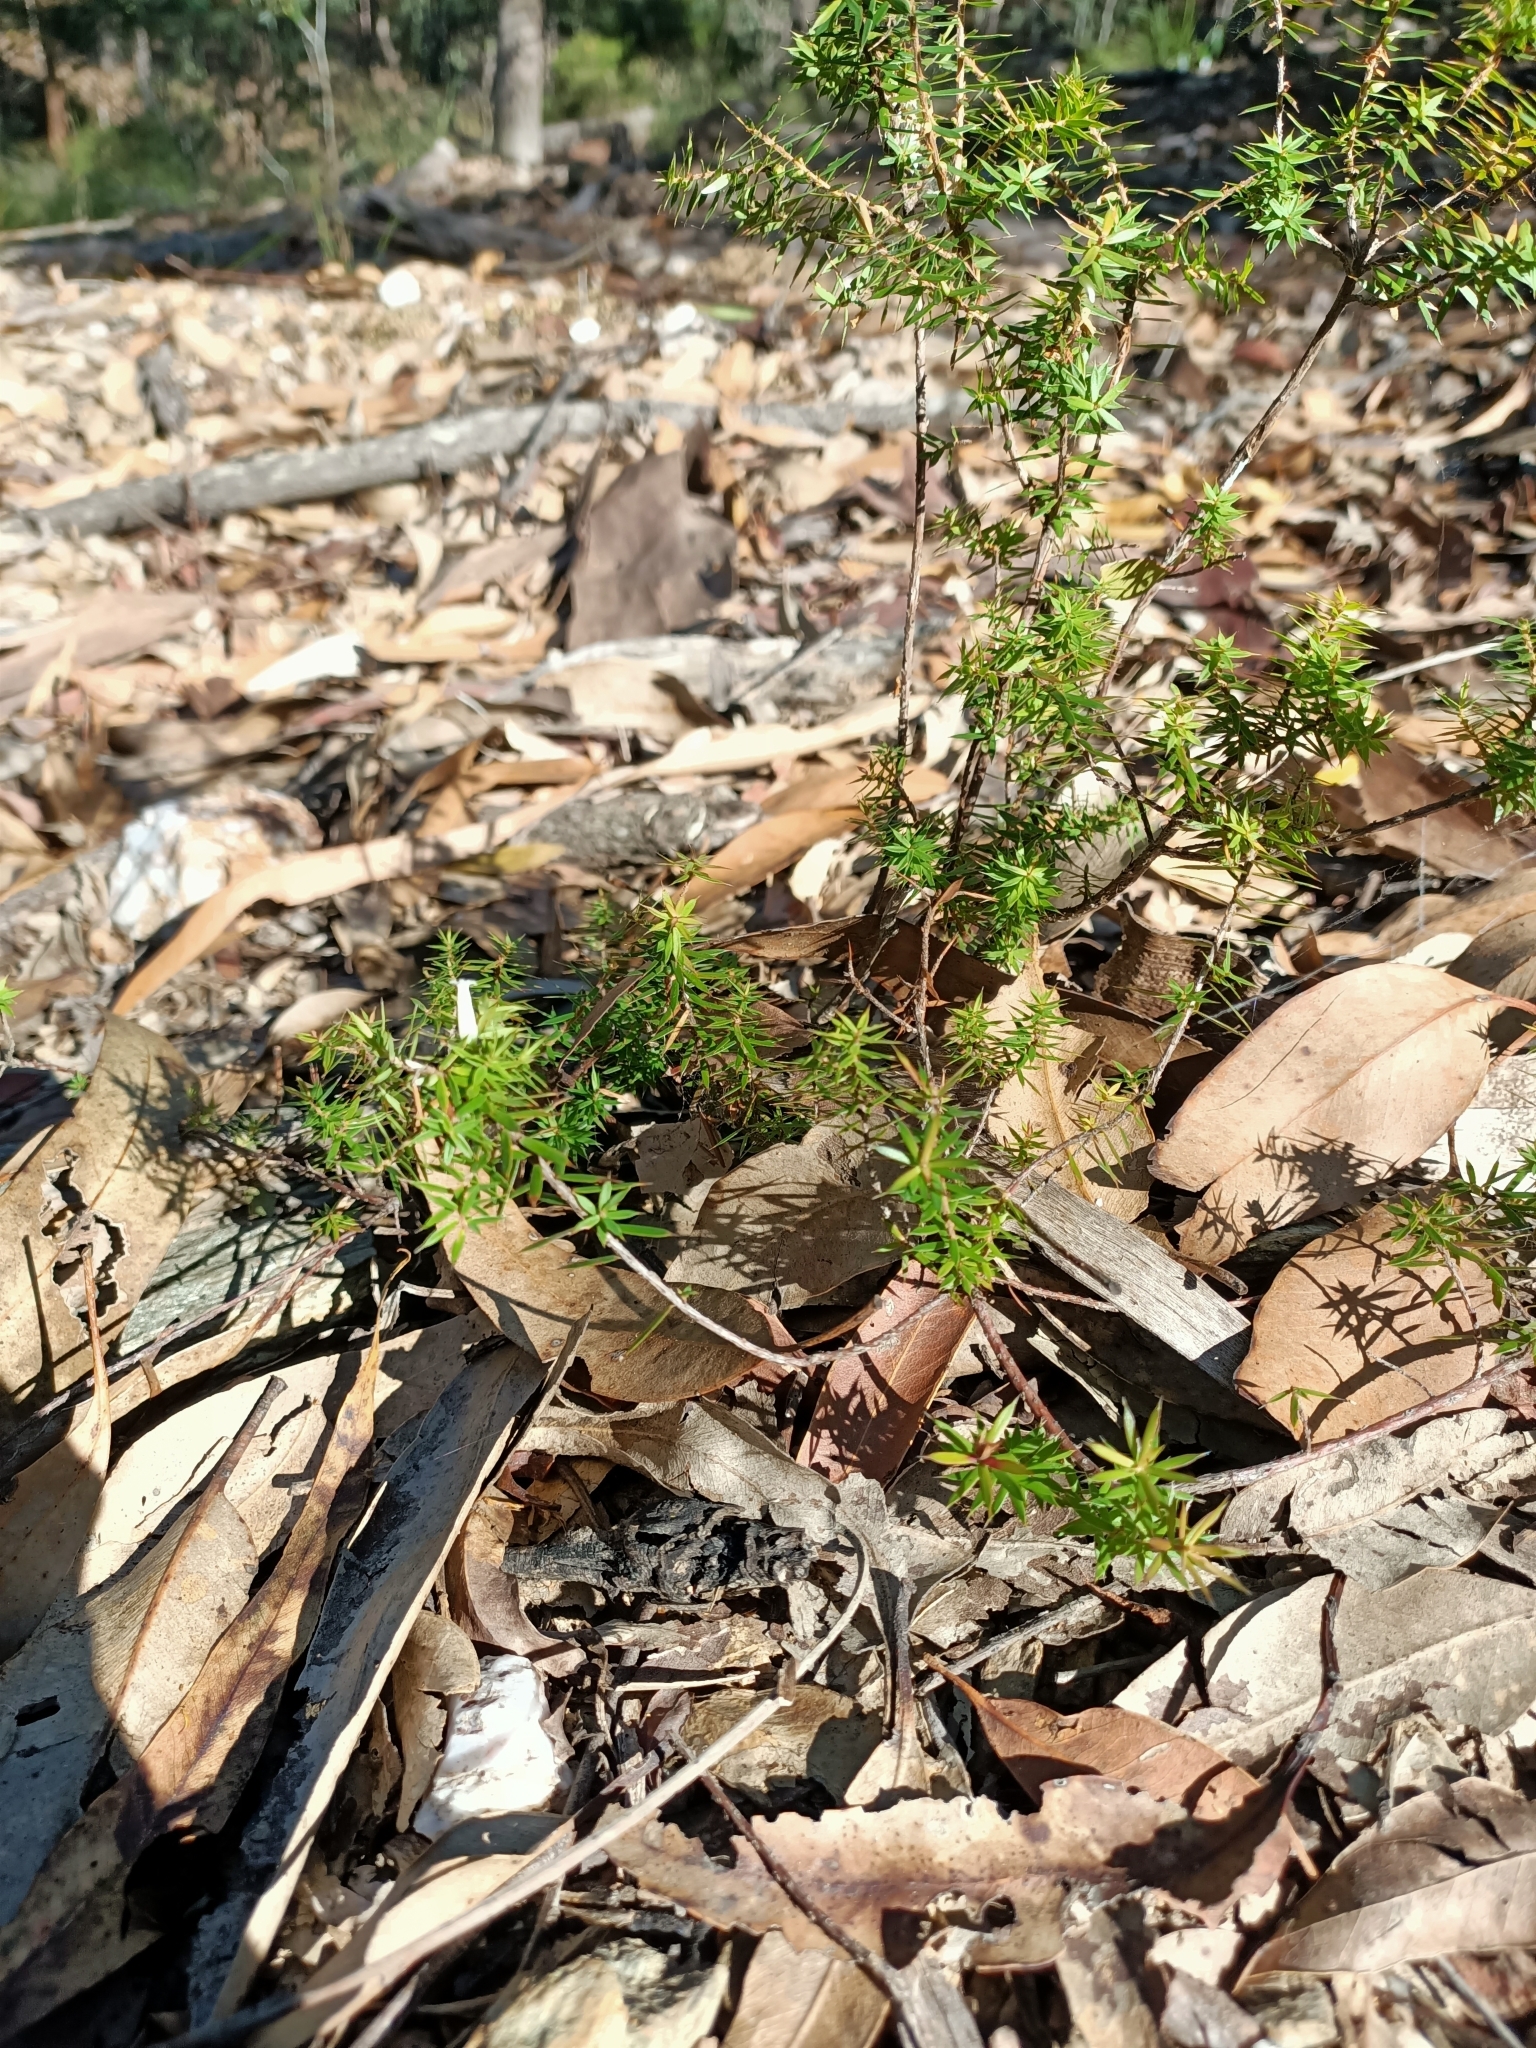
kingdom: Plantae
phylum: Tracheophyta
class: Magnoliopsida
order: Ericales
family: Ericaceae
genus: Styphelia
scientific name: Styphelia sieberi
